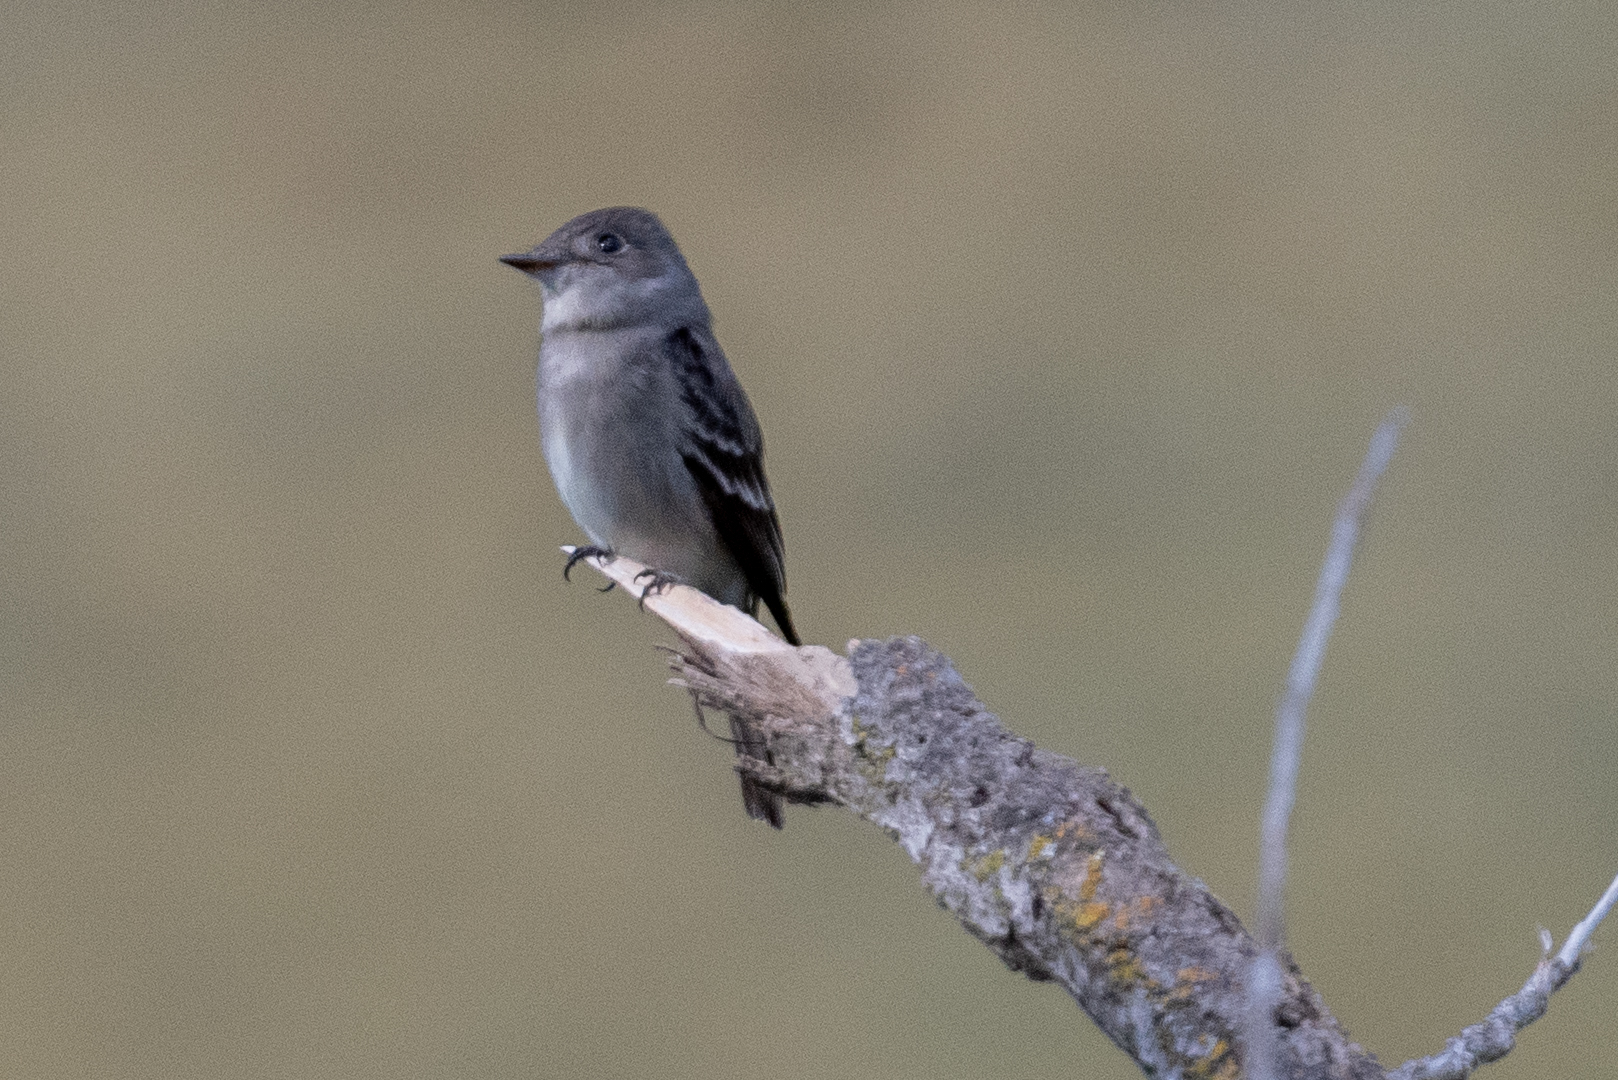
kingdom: Animalia
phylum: Chordata
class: Aves
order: Passeriformes
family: Tyrannidae
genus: Contopus
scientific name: Contopus sordidulus
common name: Western wood-pewee
